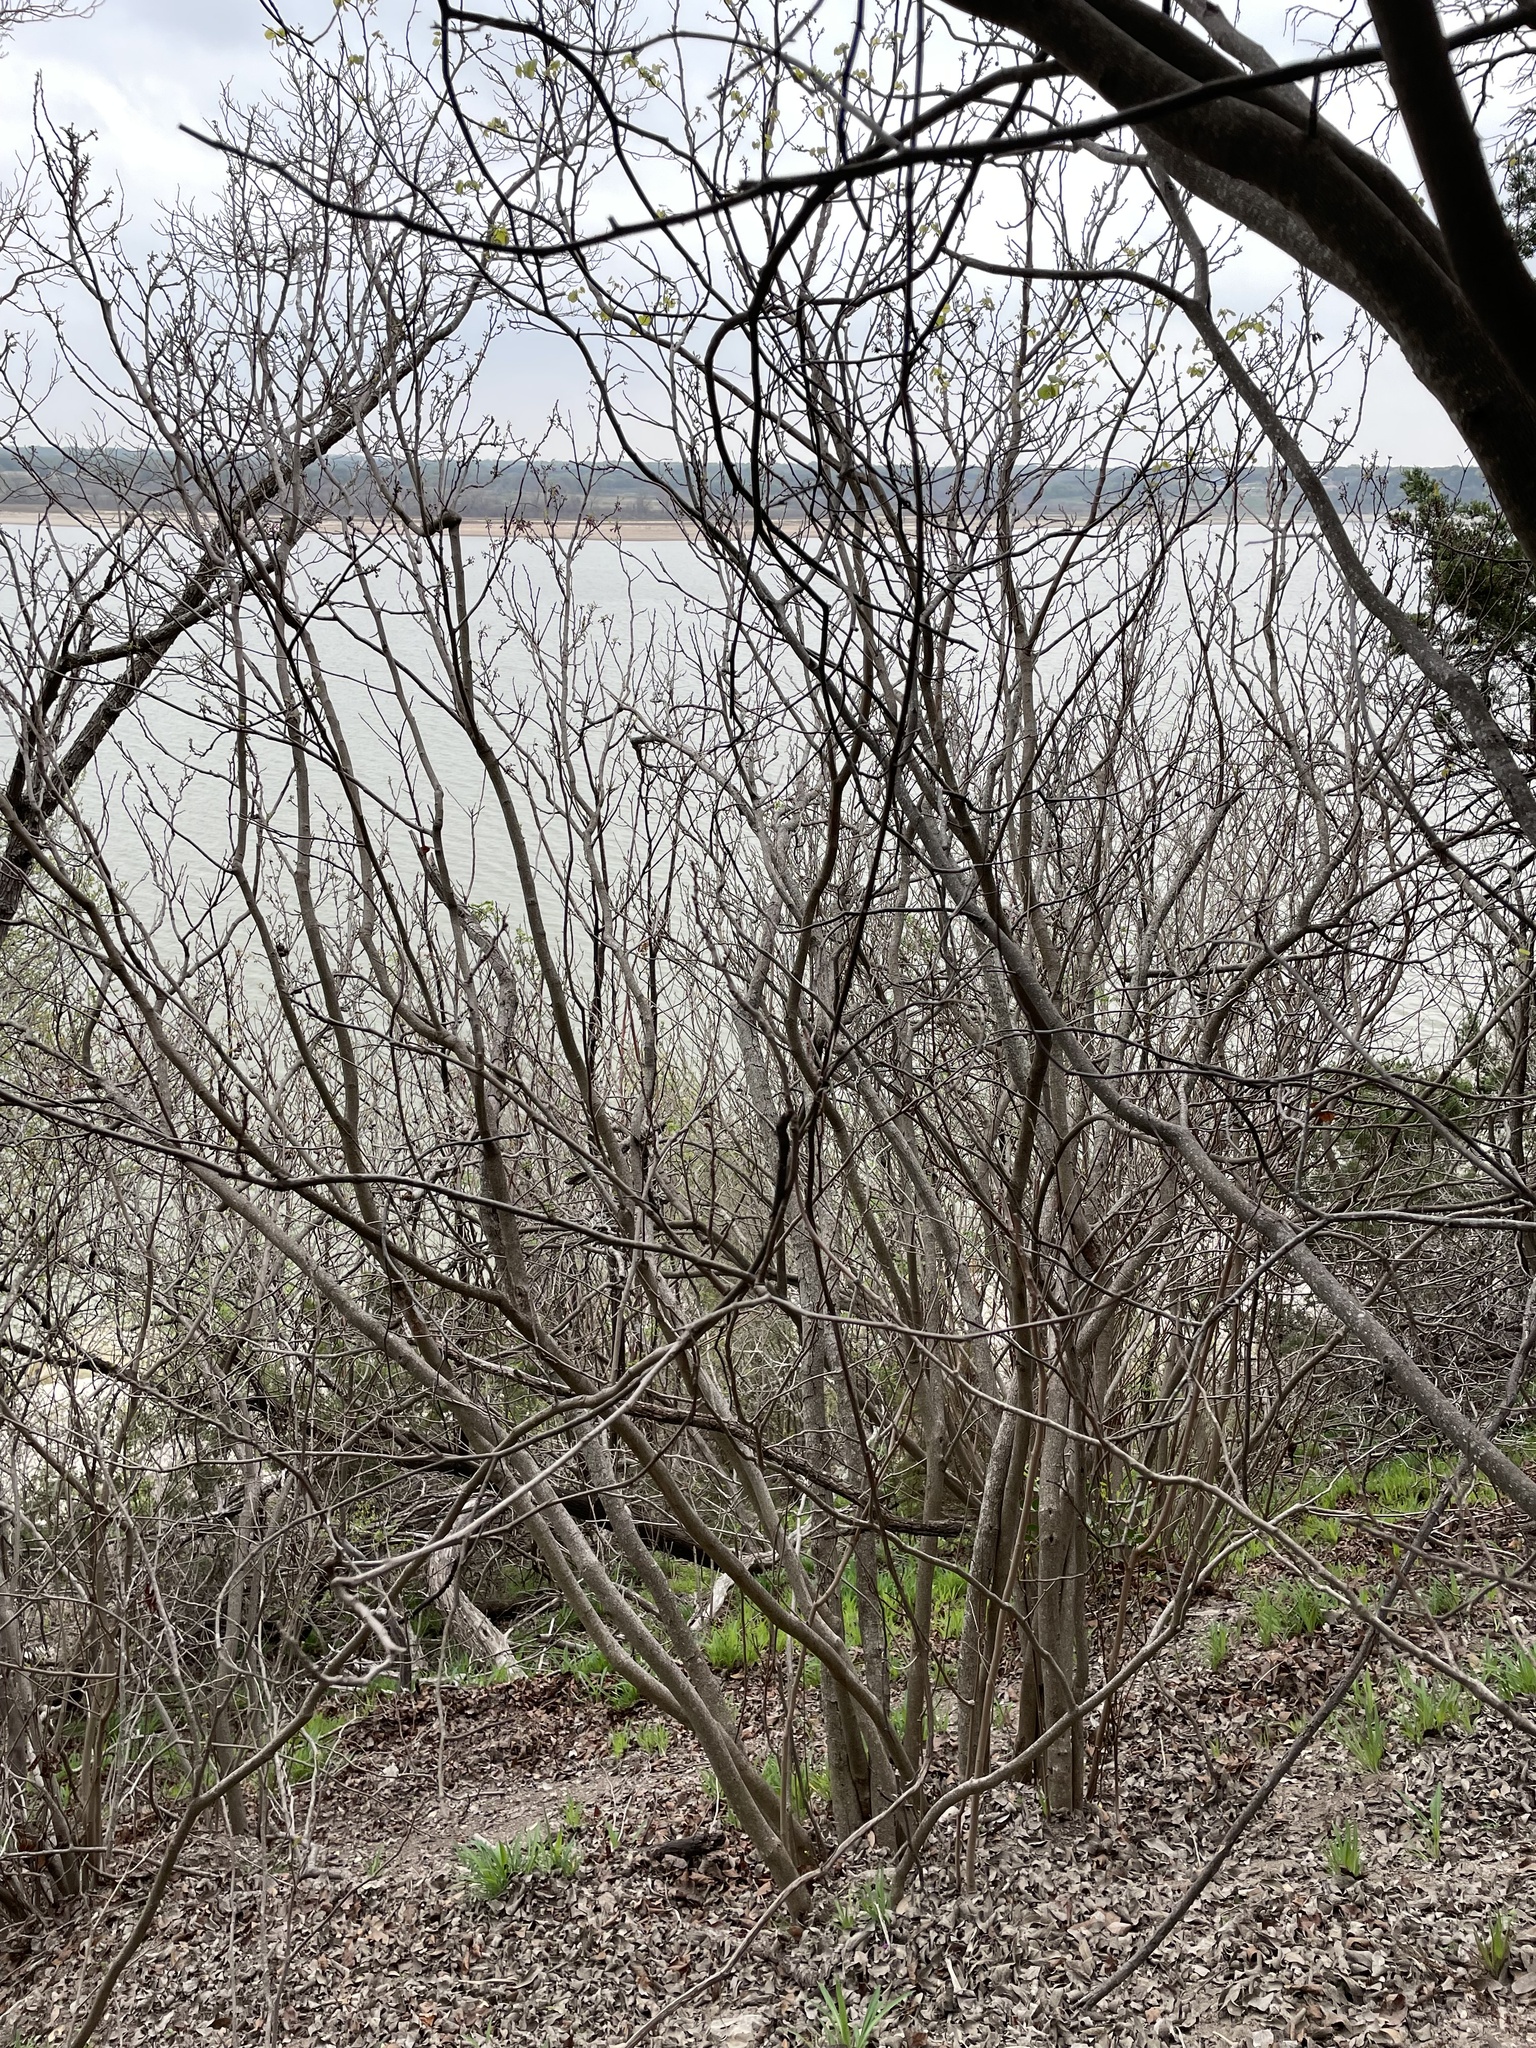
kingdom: Plantae
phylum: Tracheophyta
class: Magnoliopsida
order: Sapindales
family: Sapindaceae
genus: Ungnadia
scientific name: Ungnadia speciosa
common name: Texas-buckeye
